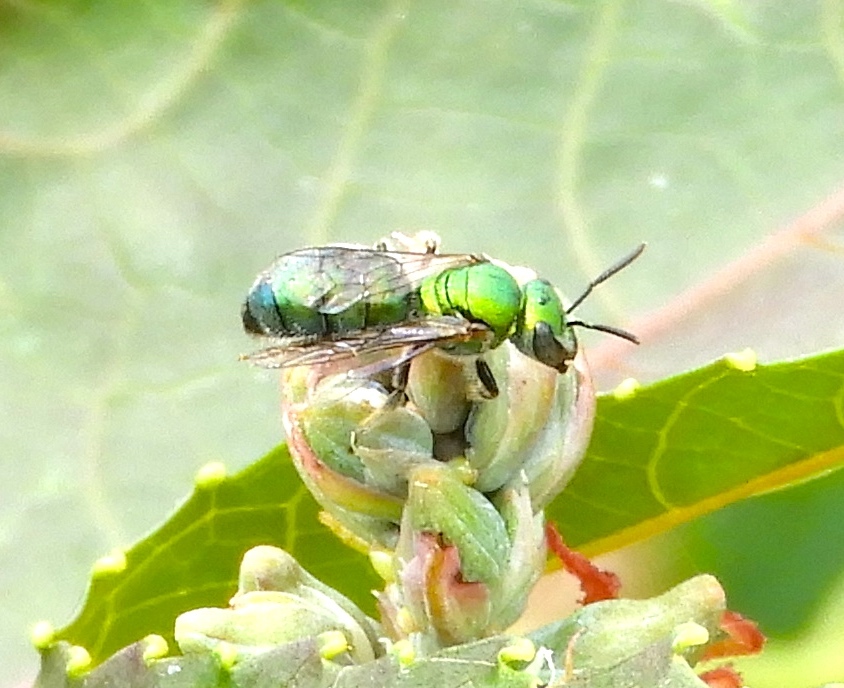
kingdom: Animalia
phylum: Arthropoda
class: Insecta
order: Hymenoptera
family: Halictidae
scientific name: Halictidae
